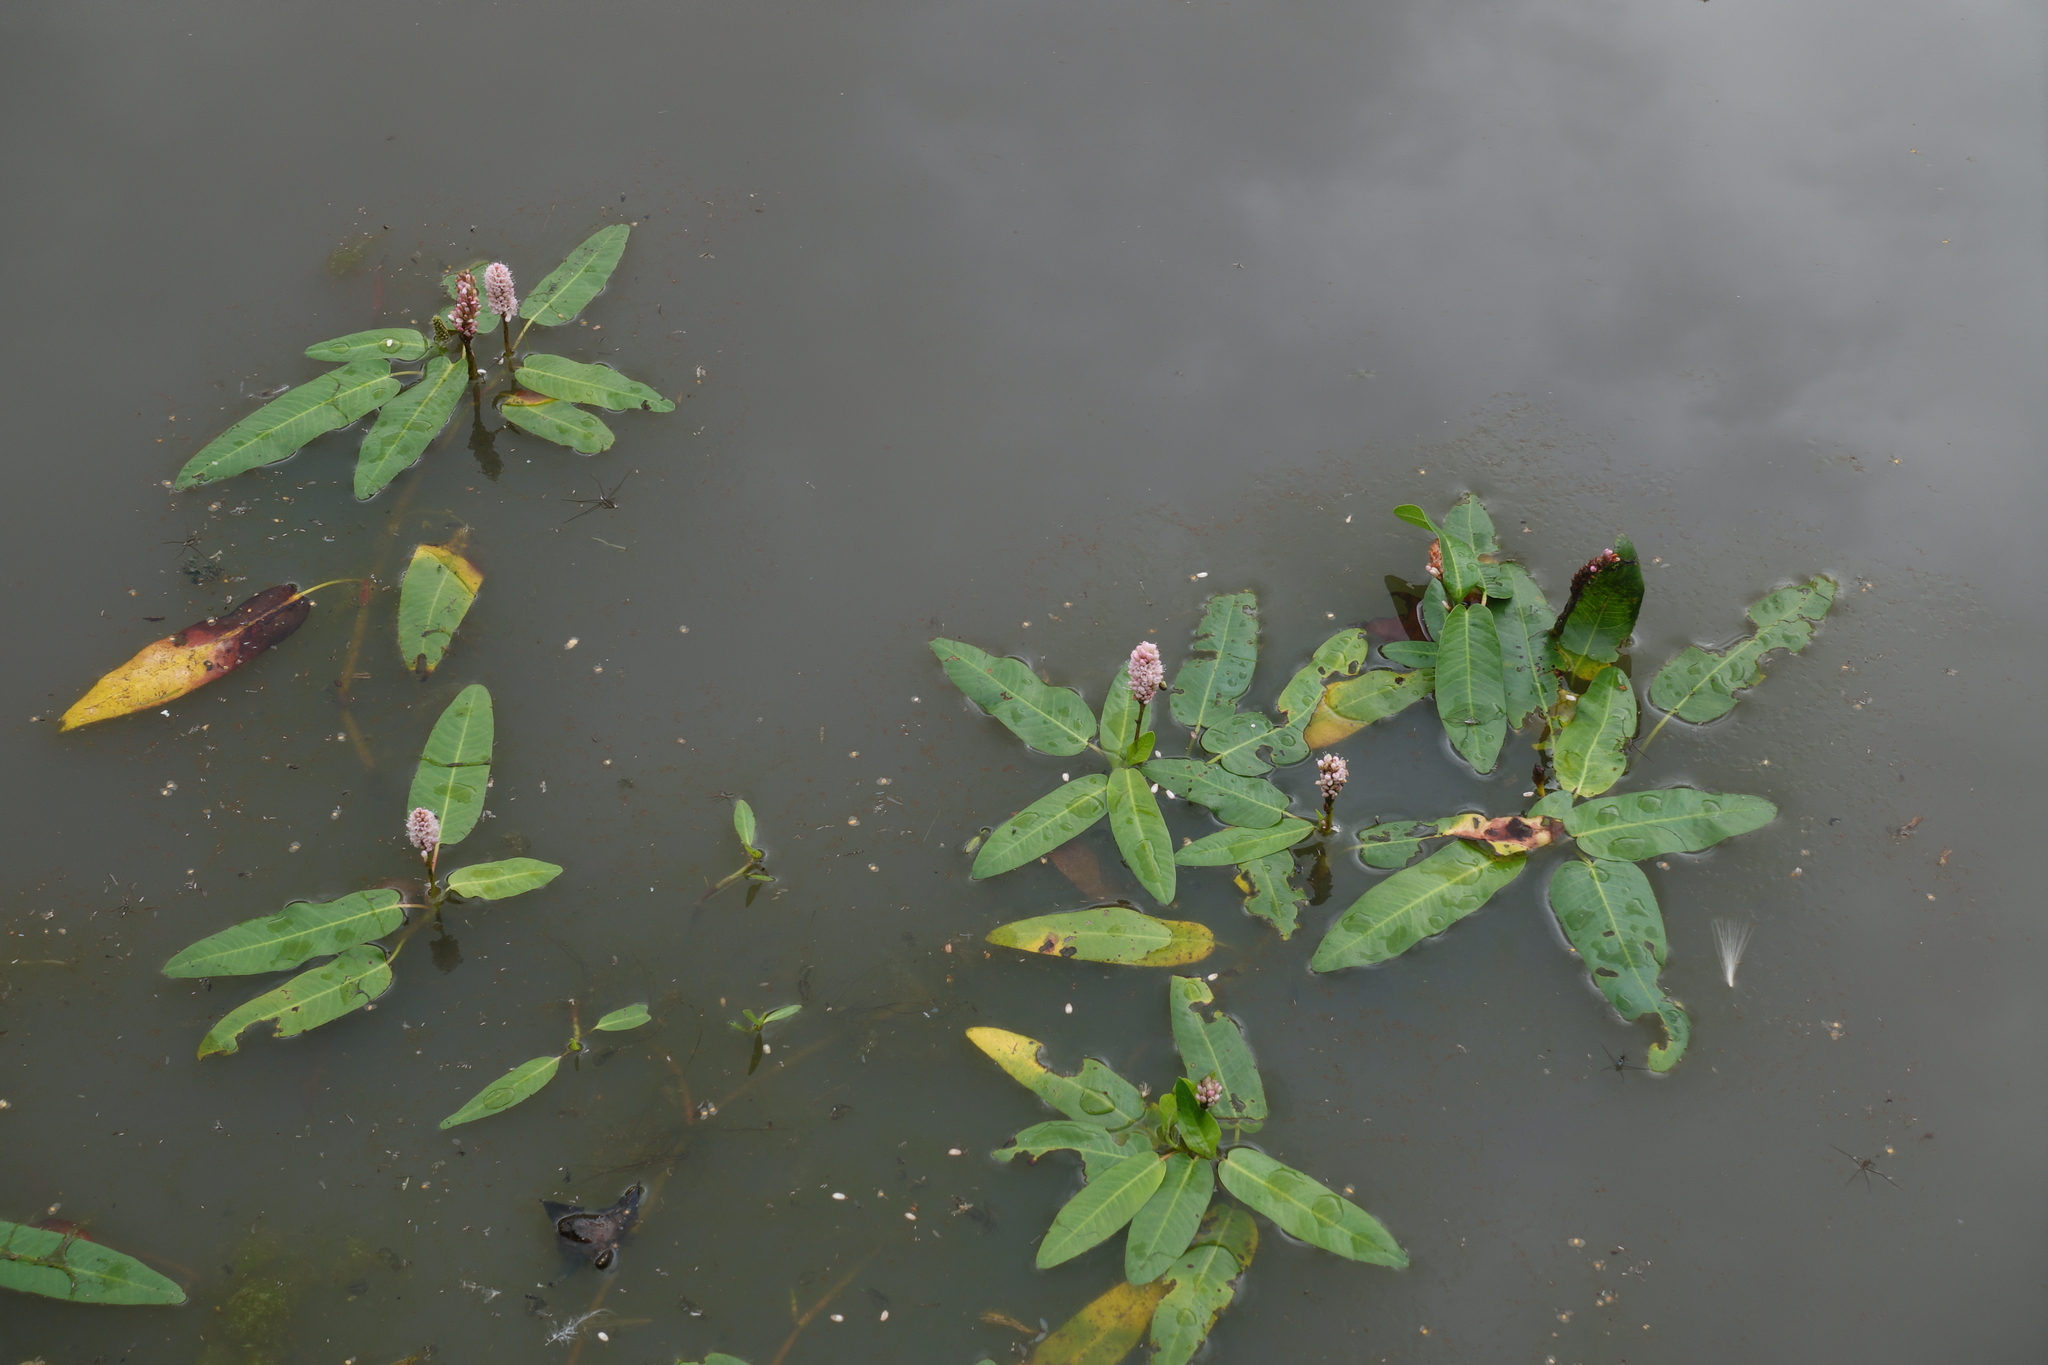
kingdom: Plantae
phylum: Tracheophyta
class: Magnoliopsida
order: Caryophyllales
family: Polygonaceae
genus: Persicaria
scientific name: Persicaria amphibia
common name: Amphibious bistort
